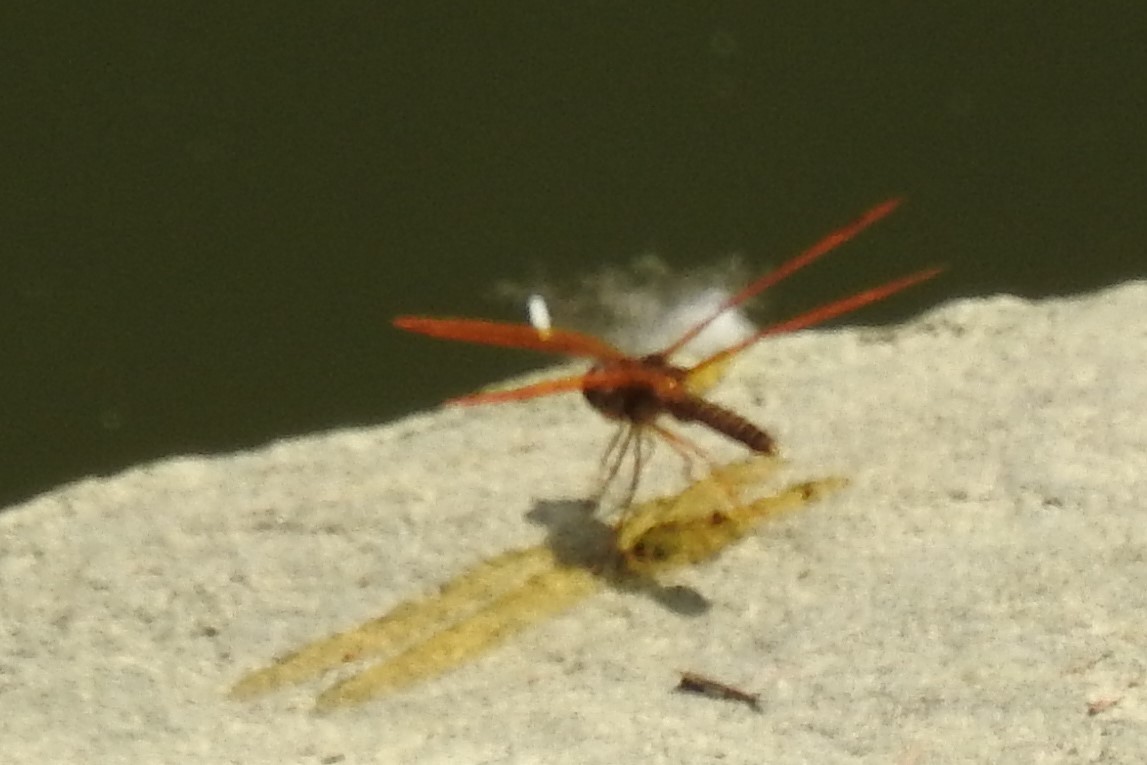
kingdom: Animalia
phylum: Arthropoda
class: Insecta
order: Odonata
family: Libellulidae
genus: Perithemis
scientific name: Perithemis tenera
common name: Eastern amberwing
